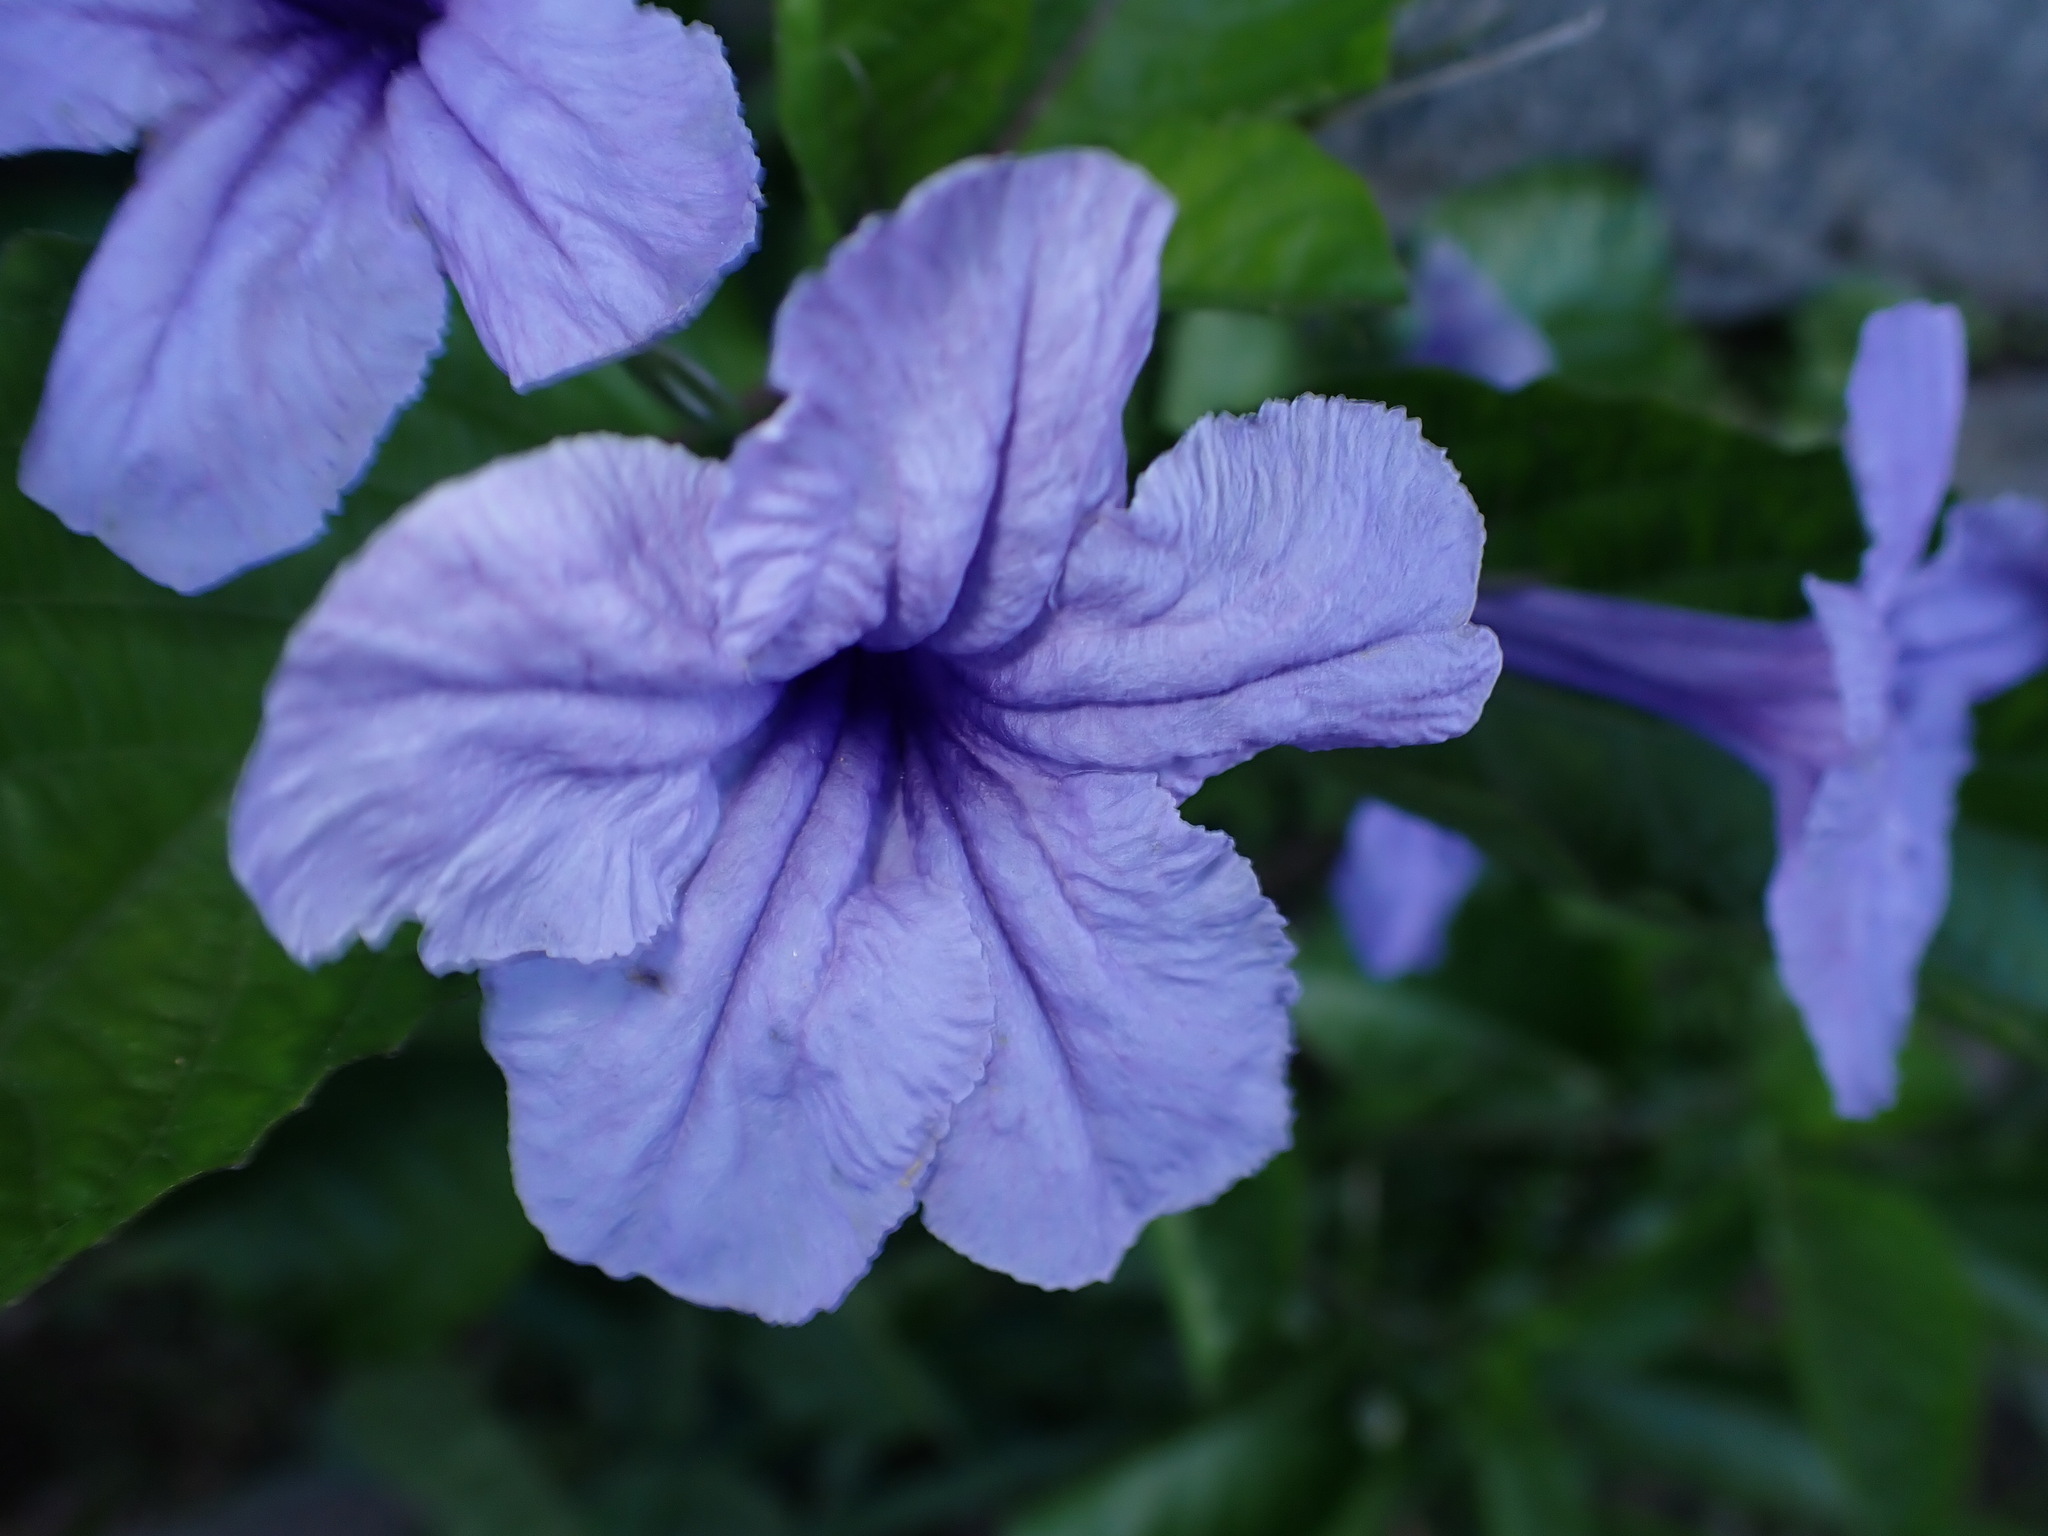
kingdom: Plantae
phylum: Tracheophyta
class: Magnoliopsida
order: Lamiales
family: Acanthaceae
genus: Ruellia
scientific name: Ruellia tuberosa
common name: Devil's bit
